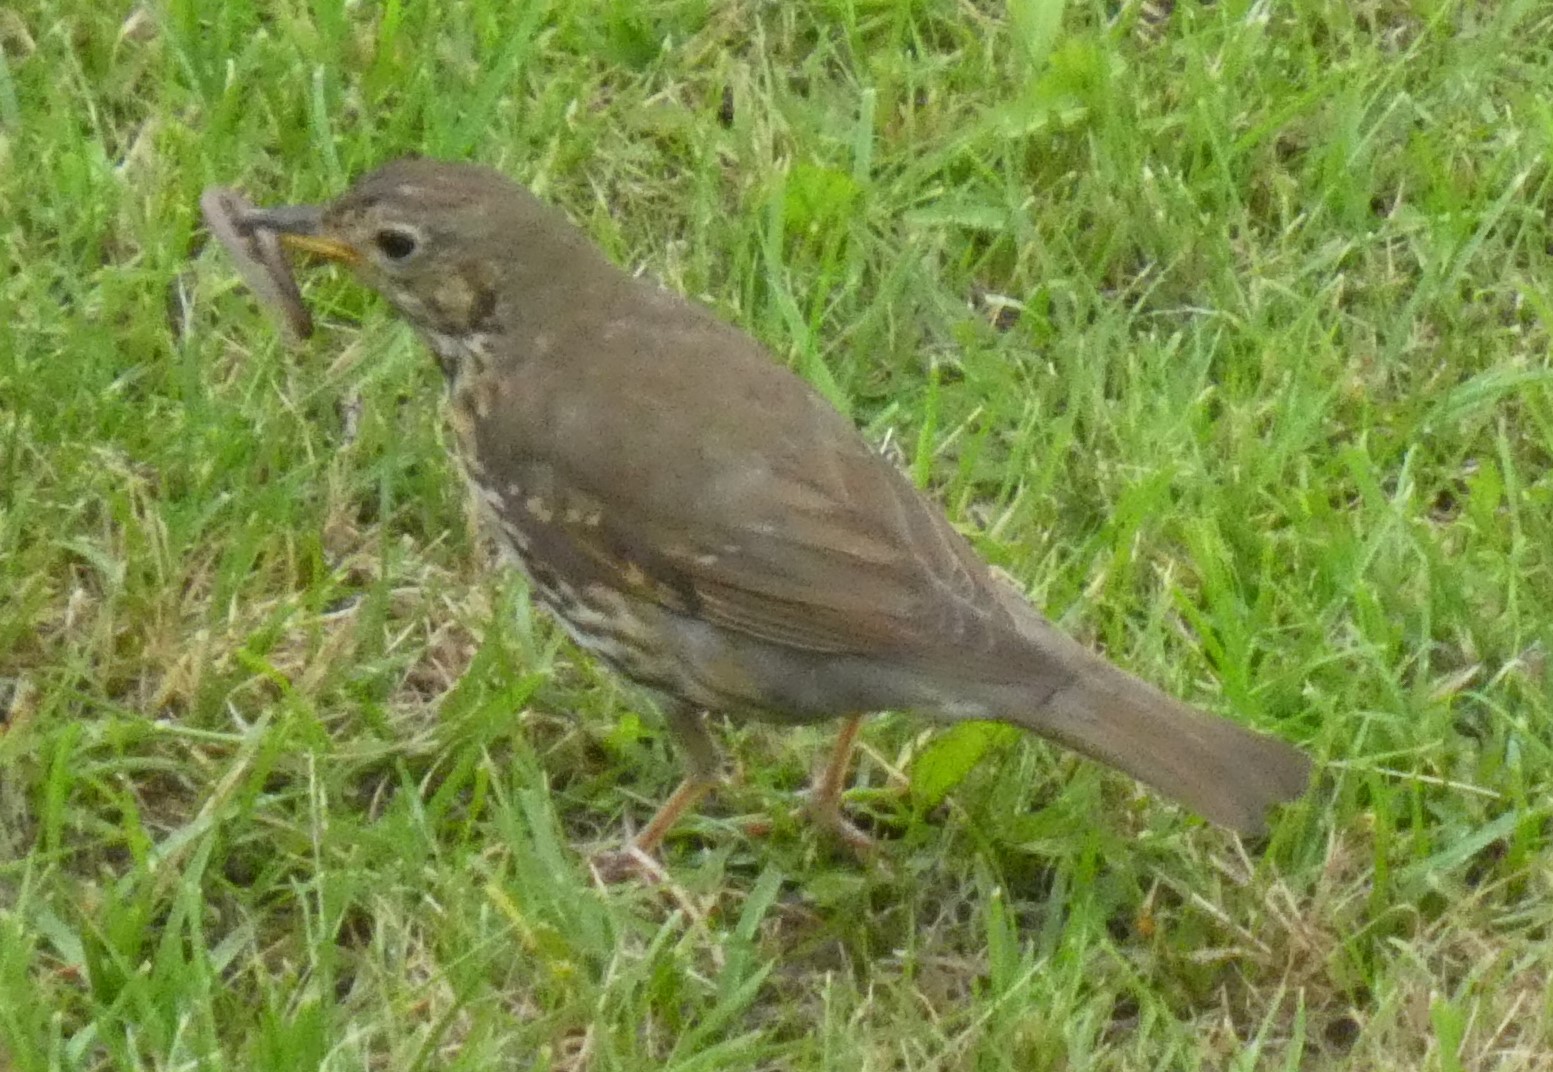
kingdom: Animalia
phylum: Chordata
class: Aves
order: Passeriformes
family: Turdidae
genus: Turdus
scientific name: Turdus philomelos
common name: Song thrush
